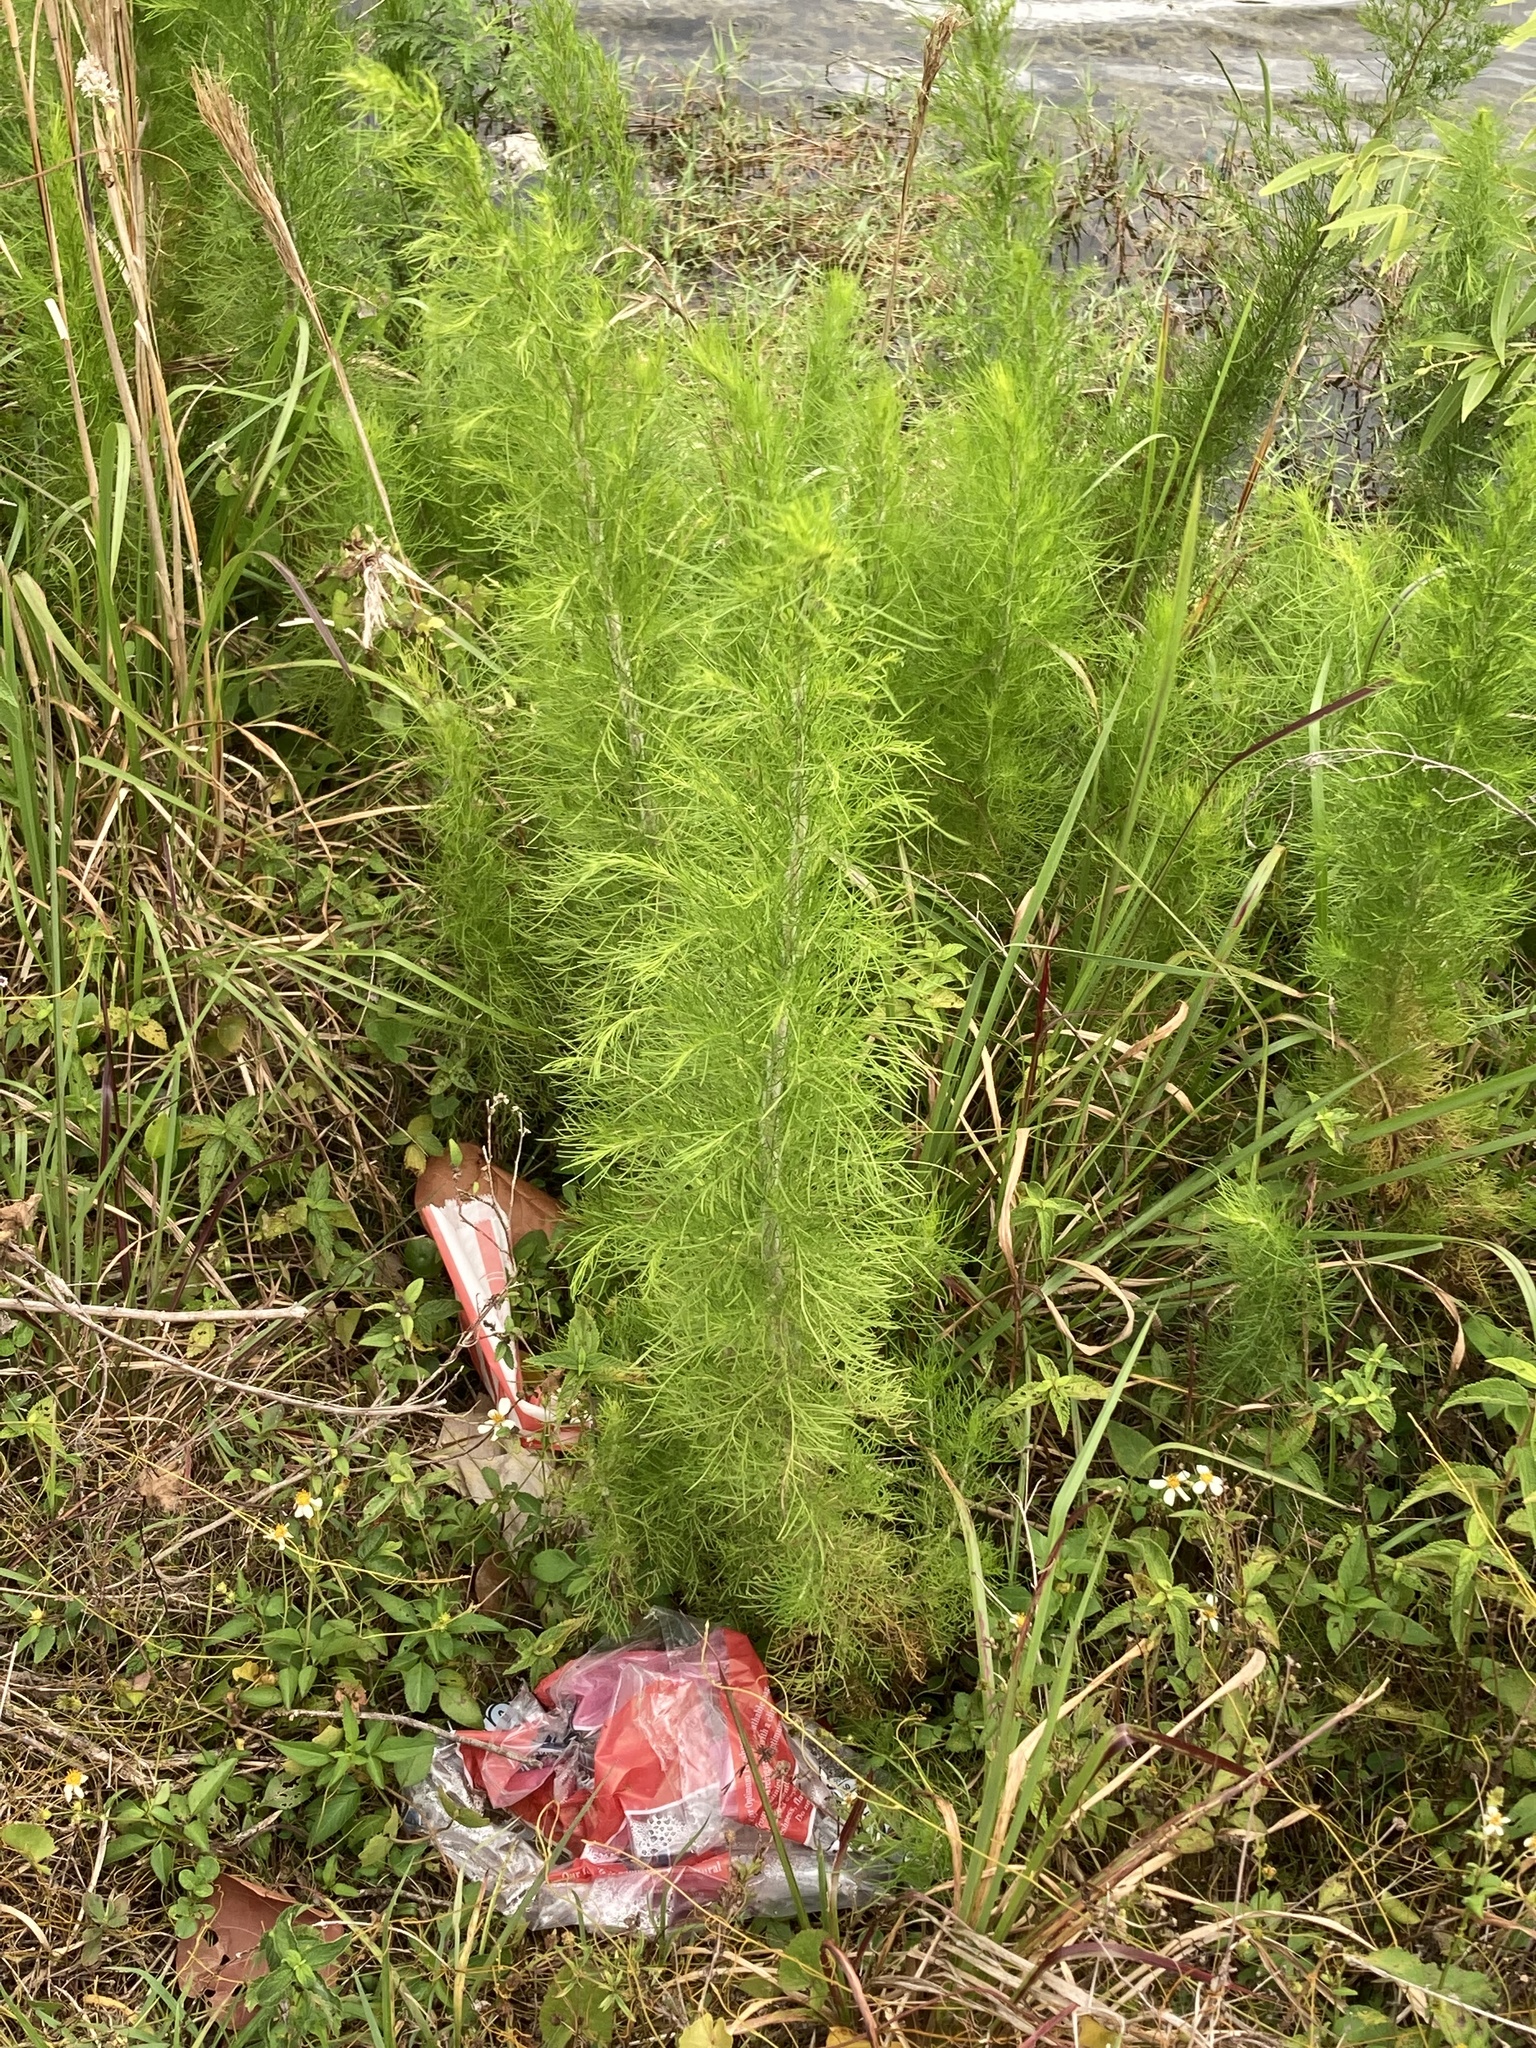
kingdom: Plantae
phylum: Tracheophyta
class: Magnoliopsida
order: Asterales
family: Asteraceae
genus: Eupatorium
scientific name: Eupatorium capillifolium
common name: Dog-fennel
